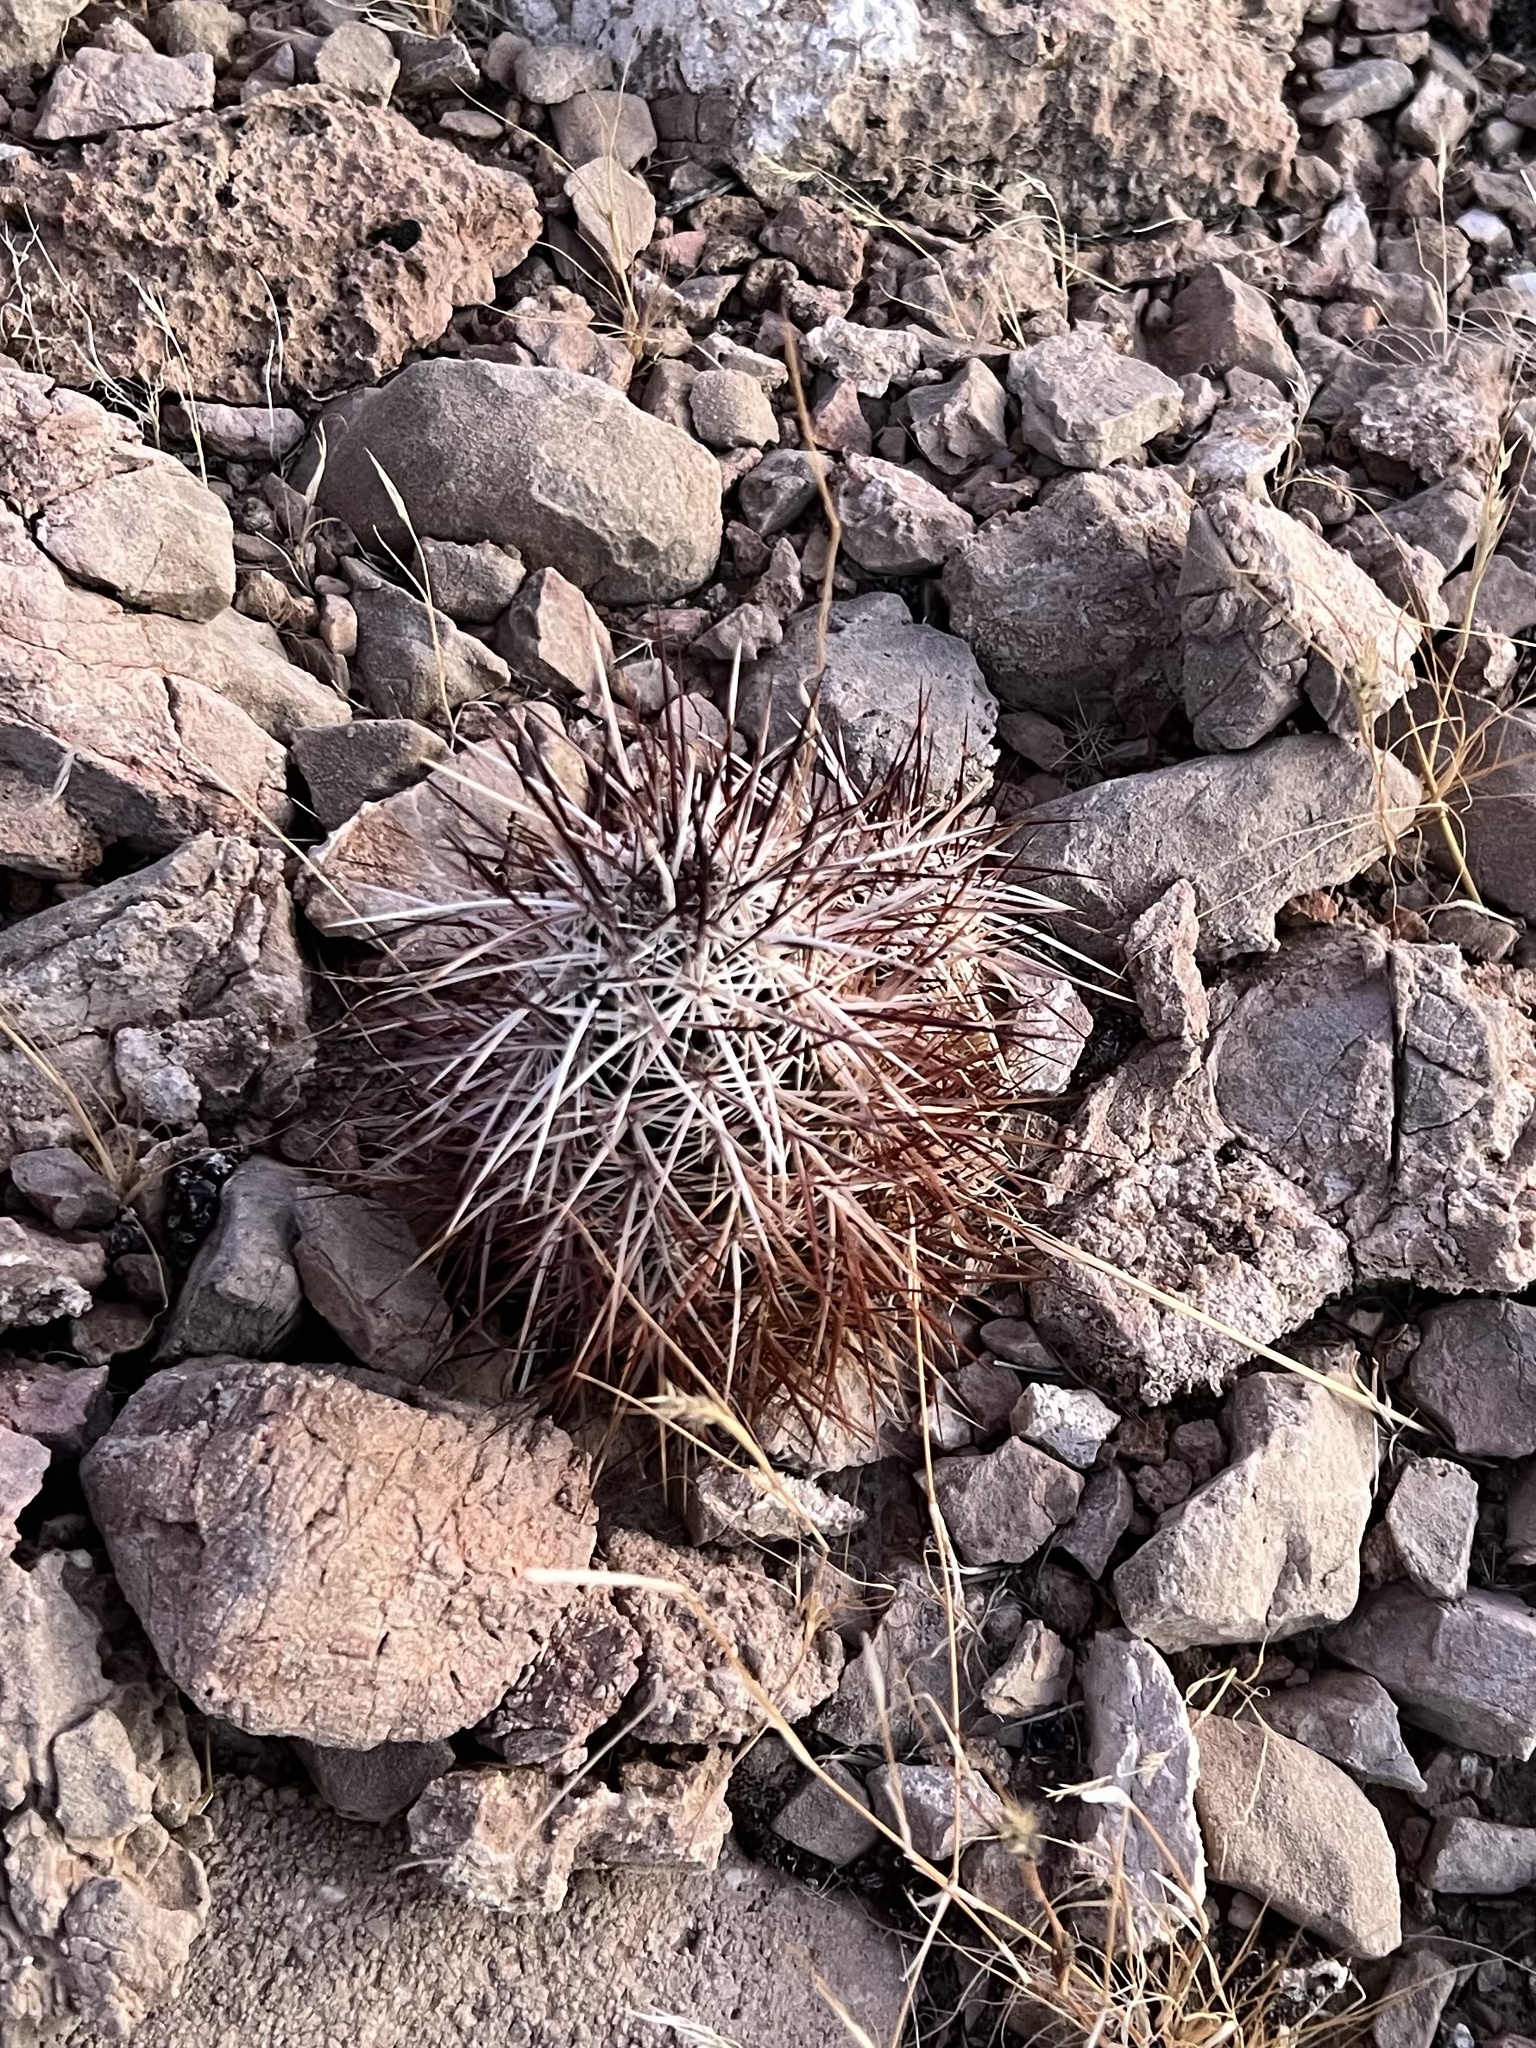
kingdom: Plantae
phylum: Tracheophyta
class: Magnoliopsida
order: Caryophyllales
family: Cactaceae
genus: Echinocereus
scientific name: Echinocereus engelmannii
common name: Engelmann's hedgehog cactus
